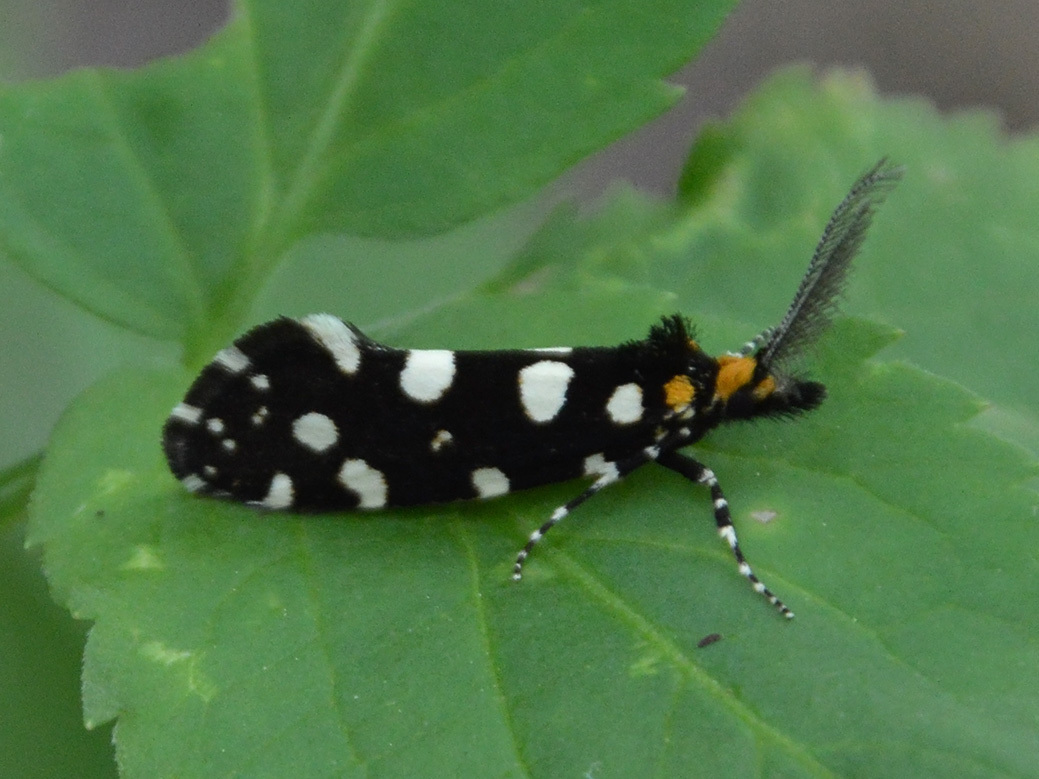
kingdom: Animalia
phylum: Arthropoda
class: Insecta
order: Lepidoptera
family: Tineidae
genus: Euplocamus
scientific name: Euplocamus anthracinalis
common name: Black clothes
